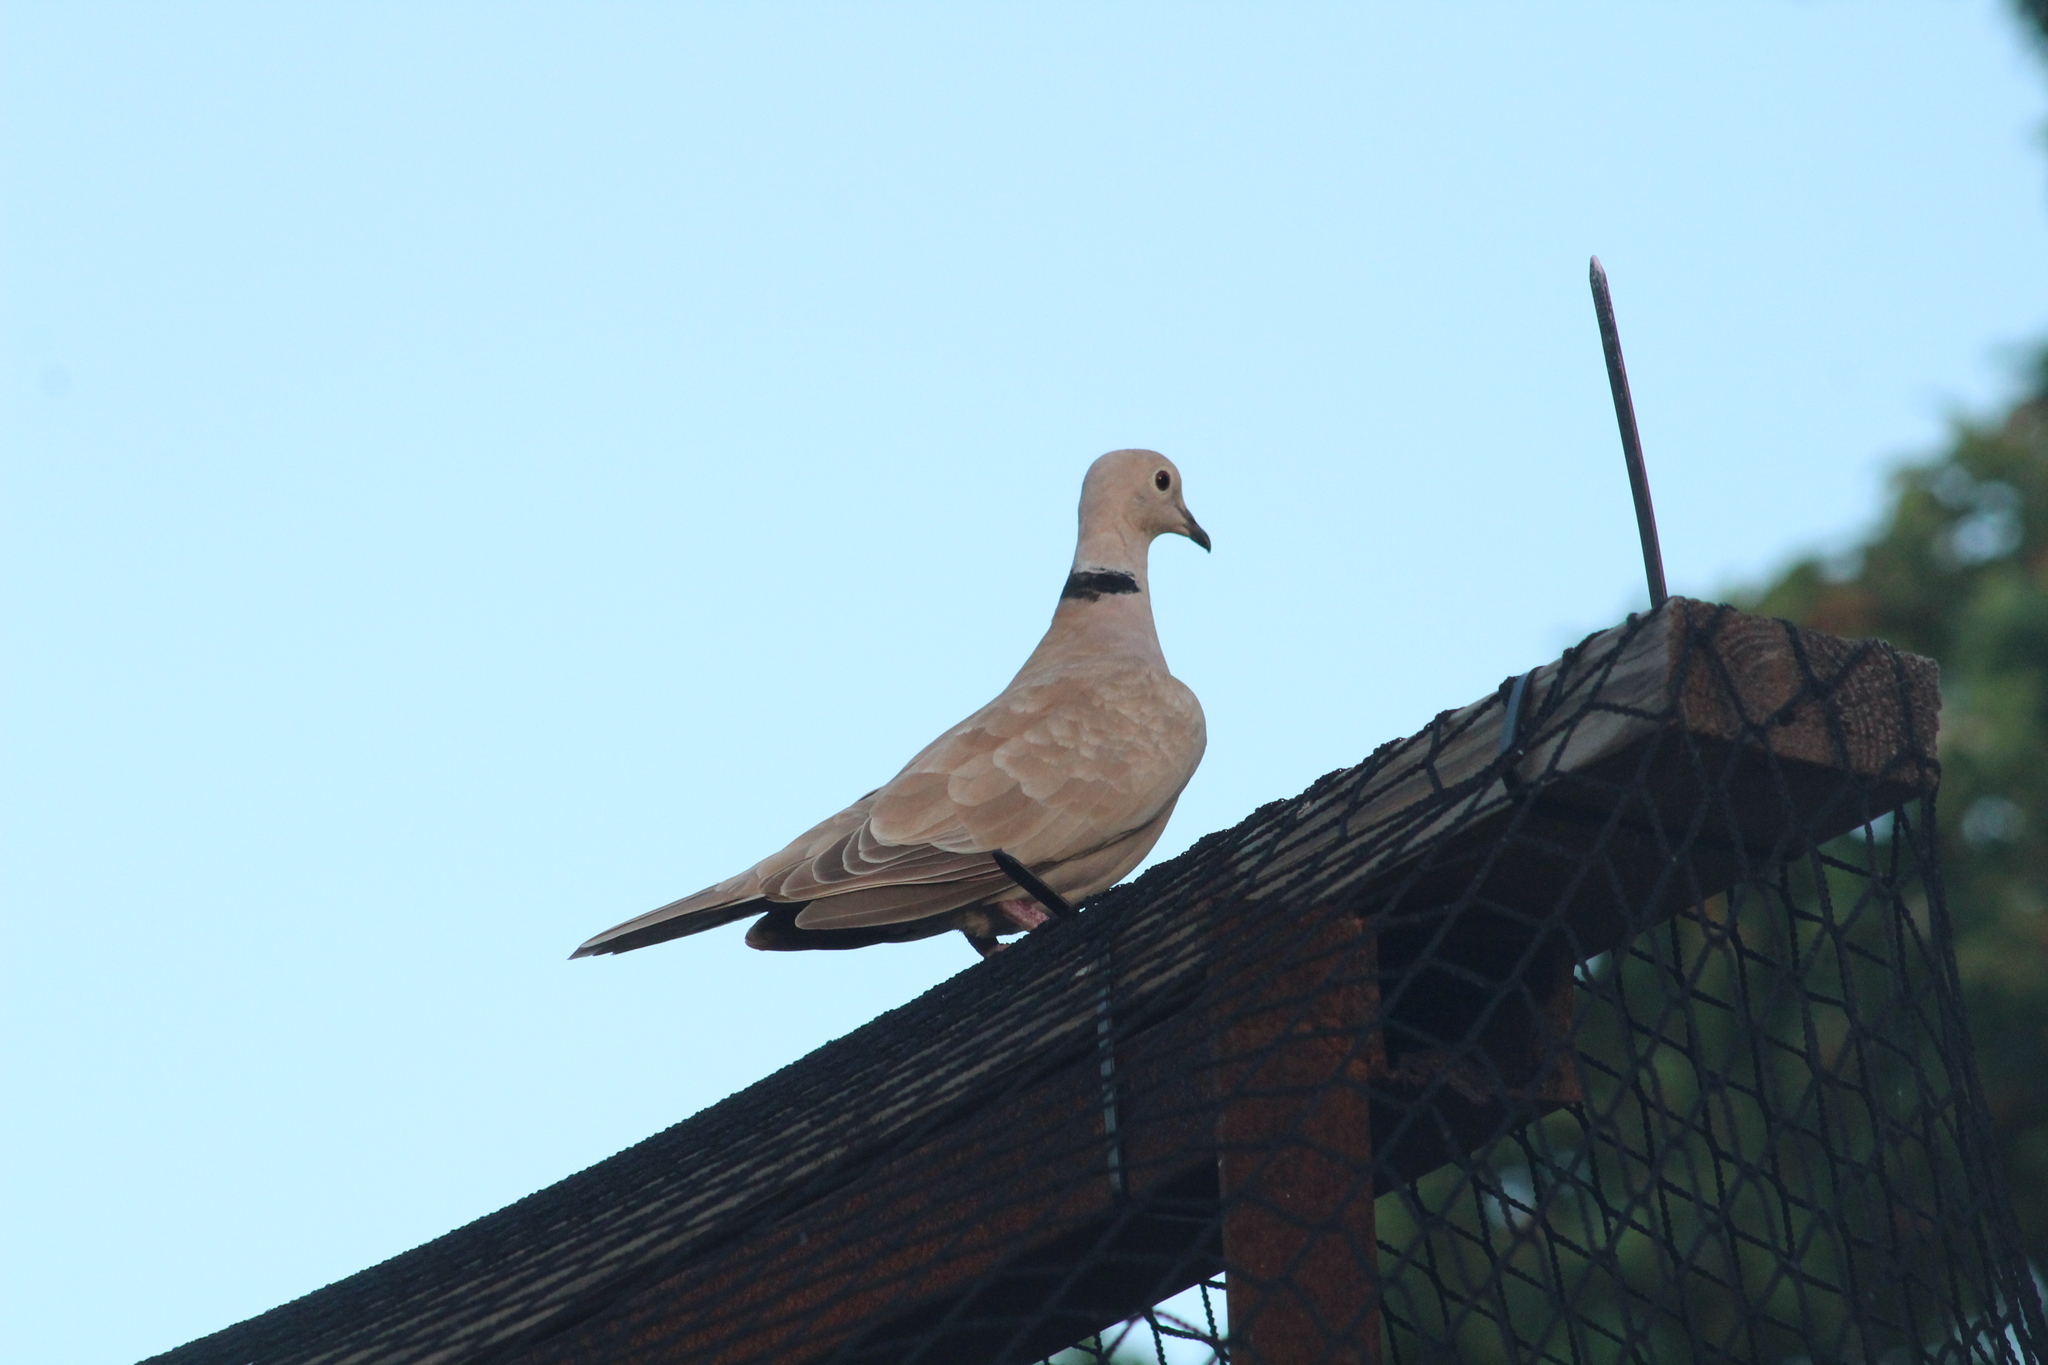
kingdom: Animalia
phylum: Chordata
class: Aves
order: Columbiformes
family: Columbidae
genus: Streptopelia
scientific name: Streptopelia decaocto
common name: Eurasian collared dove
